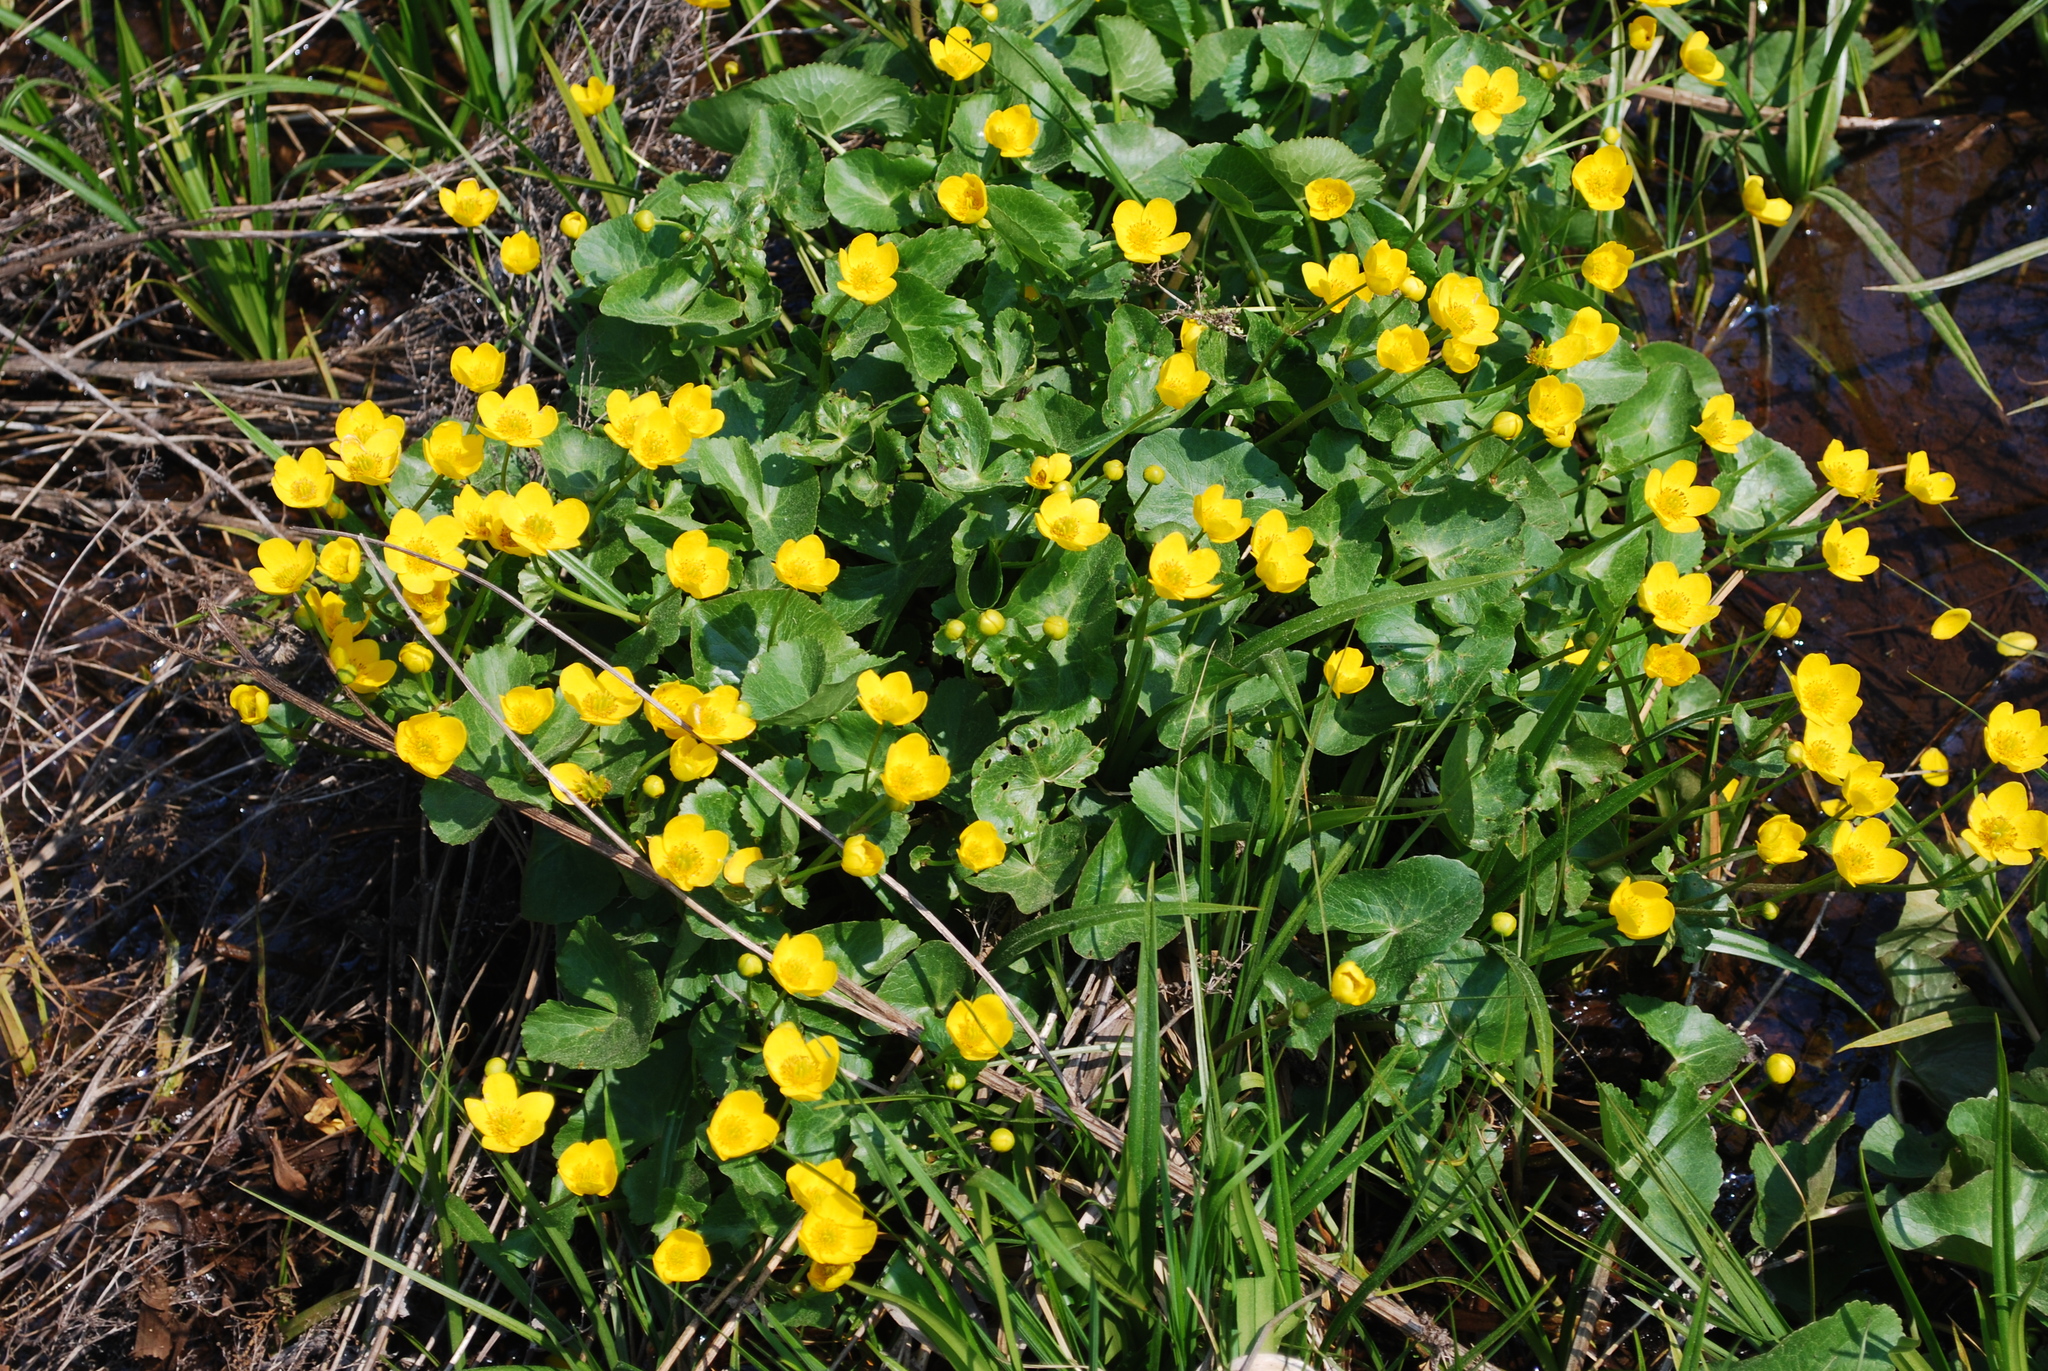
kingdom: Plantae
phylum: Tracheophyta
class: Magnoliopsida
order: Ranunculales
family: Ranunculaceae
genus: Caltha
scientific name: Caltha palustris
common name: Marsh marigold
